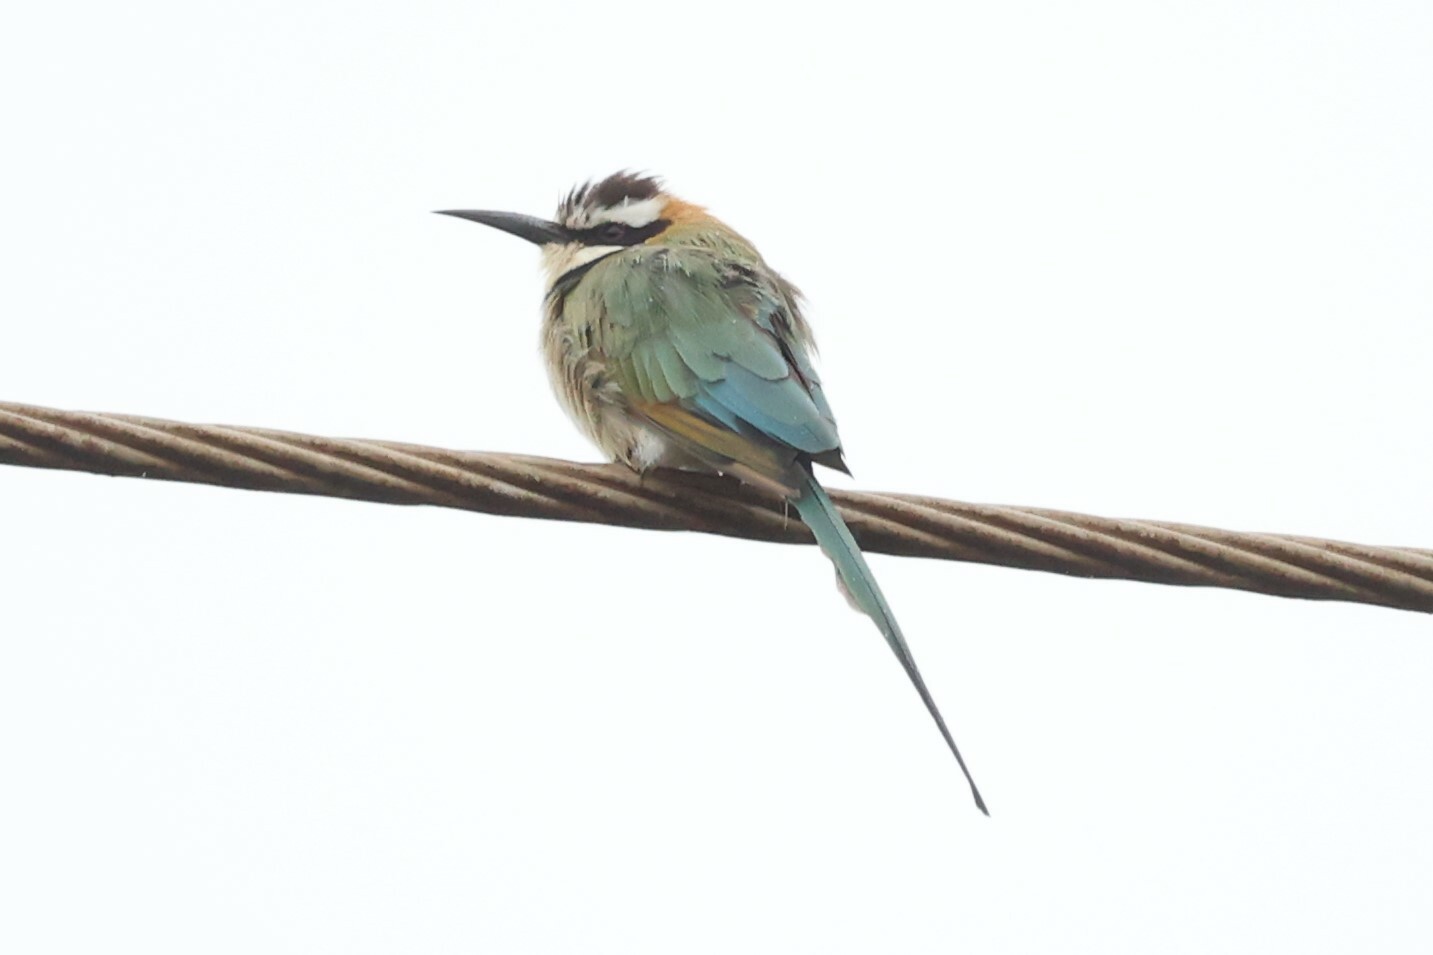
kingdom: Animalia
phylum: Chordata
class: Aves
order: Coraciiformes
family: Meropidae
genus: Merops
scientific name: Merops albicollis
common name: White-throated bee-eater
